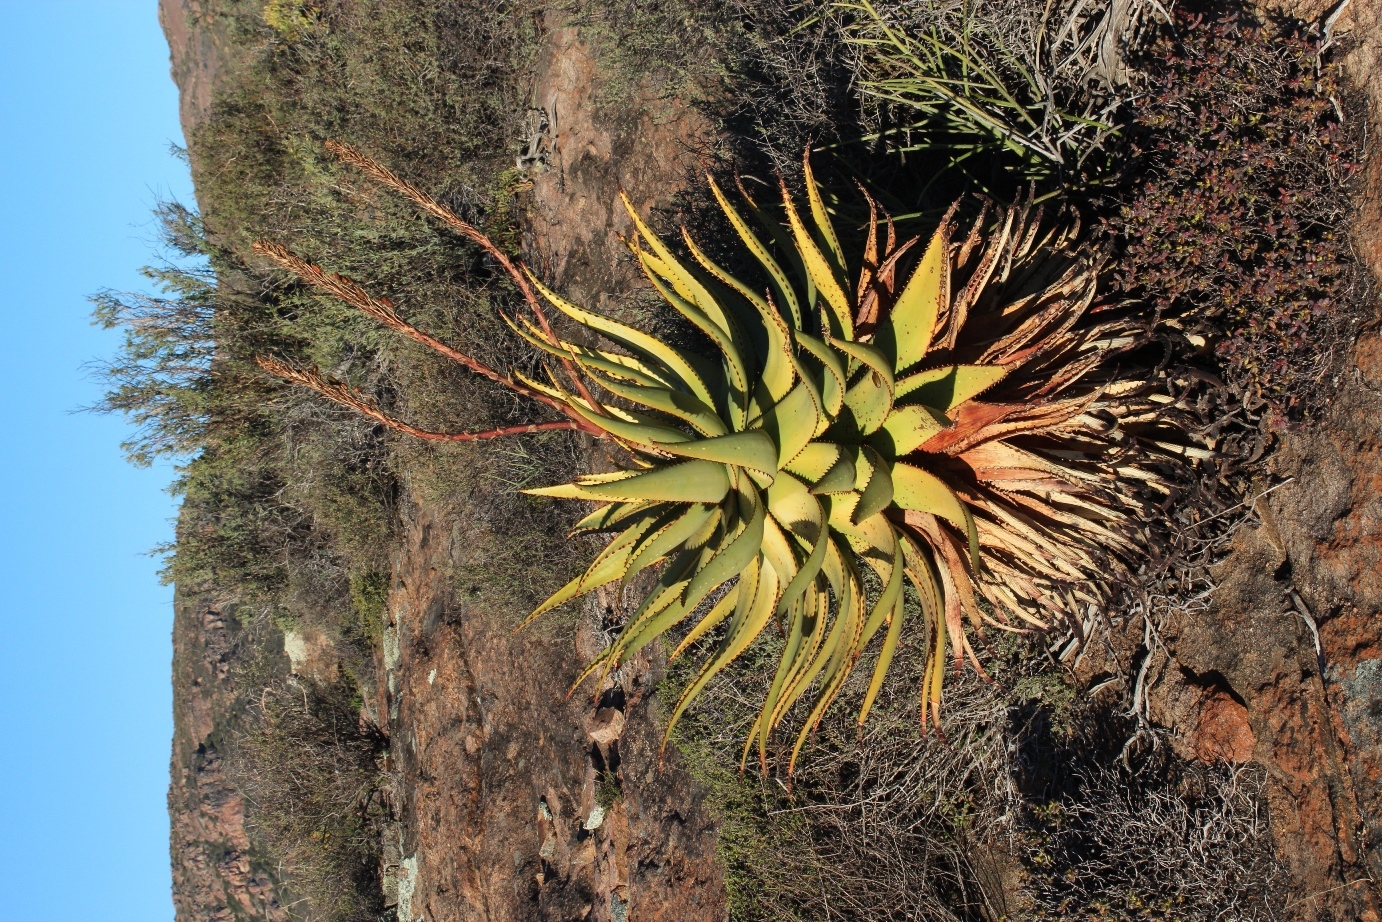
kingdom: Plantae
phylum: Tracheophyta
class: Liliopsida
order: Asparagales
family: Asphodelaceae
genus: Aloe
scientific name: Aloe khamiesensis
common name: Namaqua aloe
